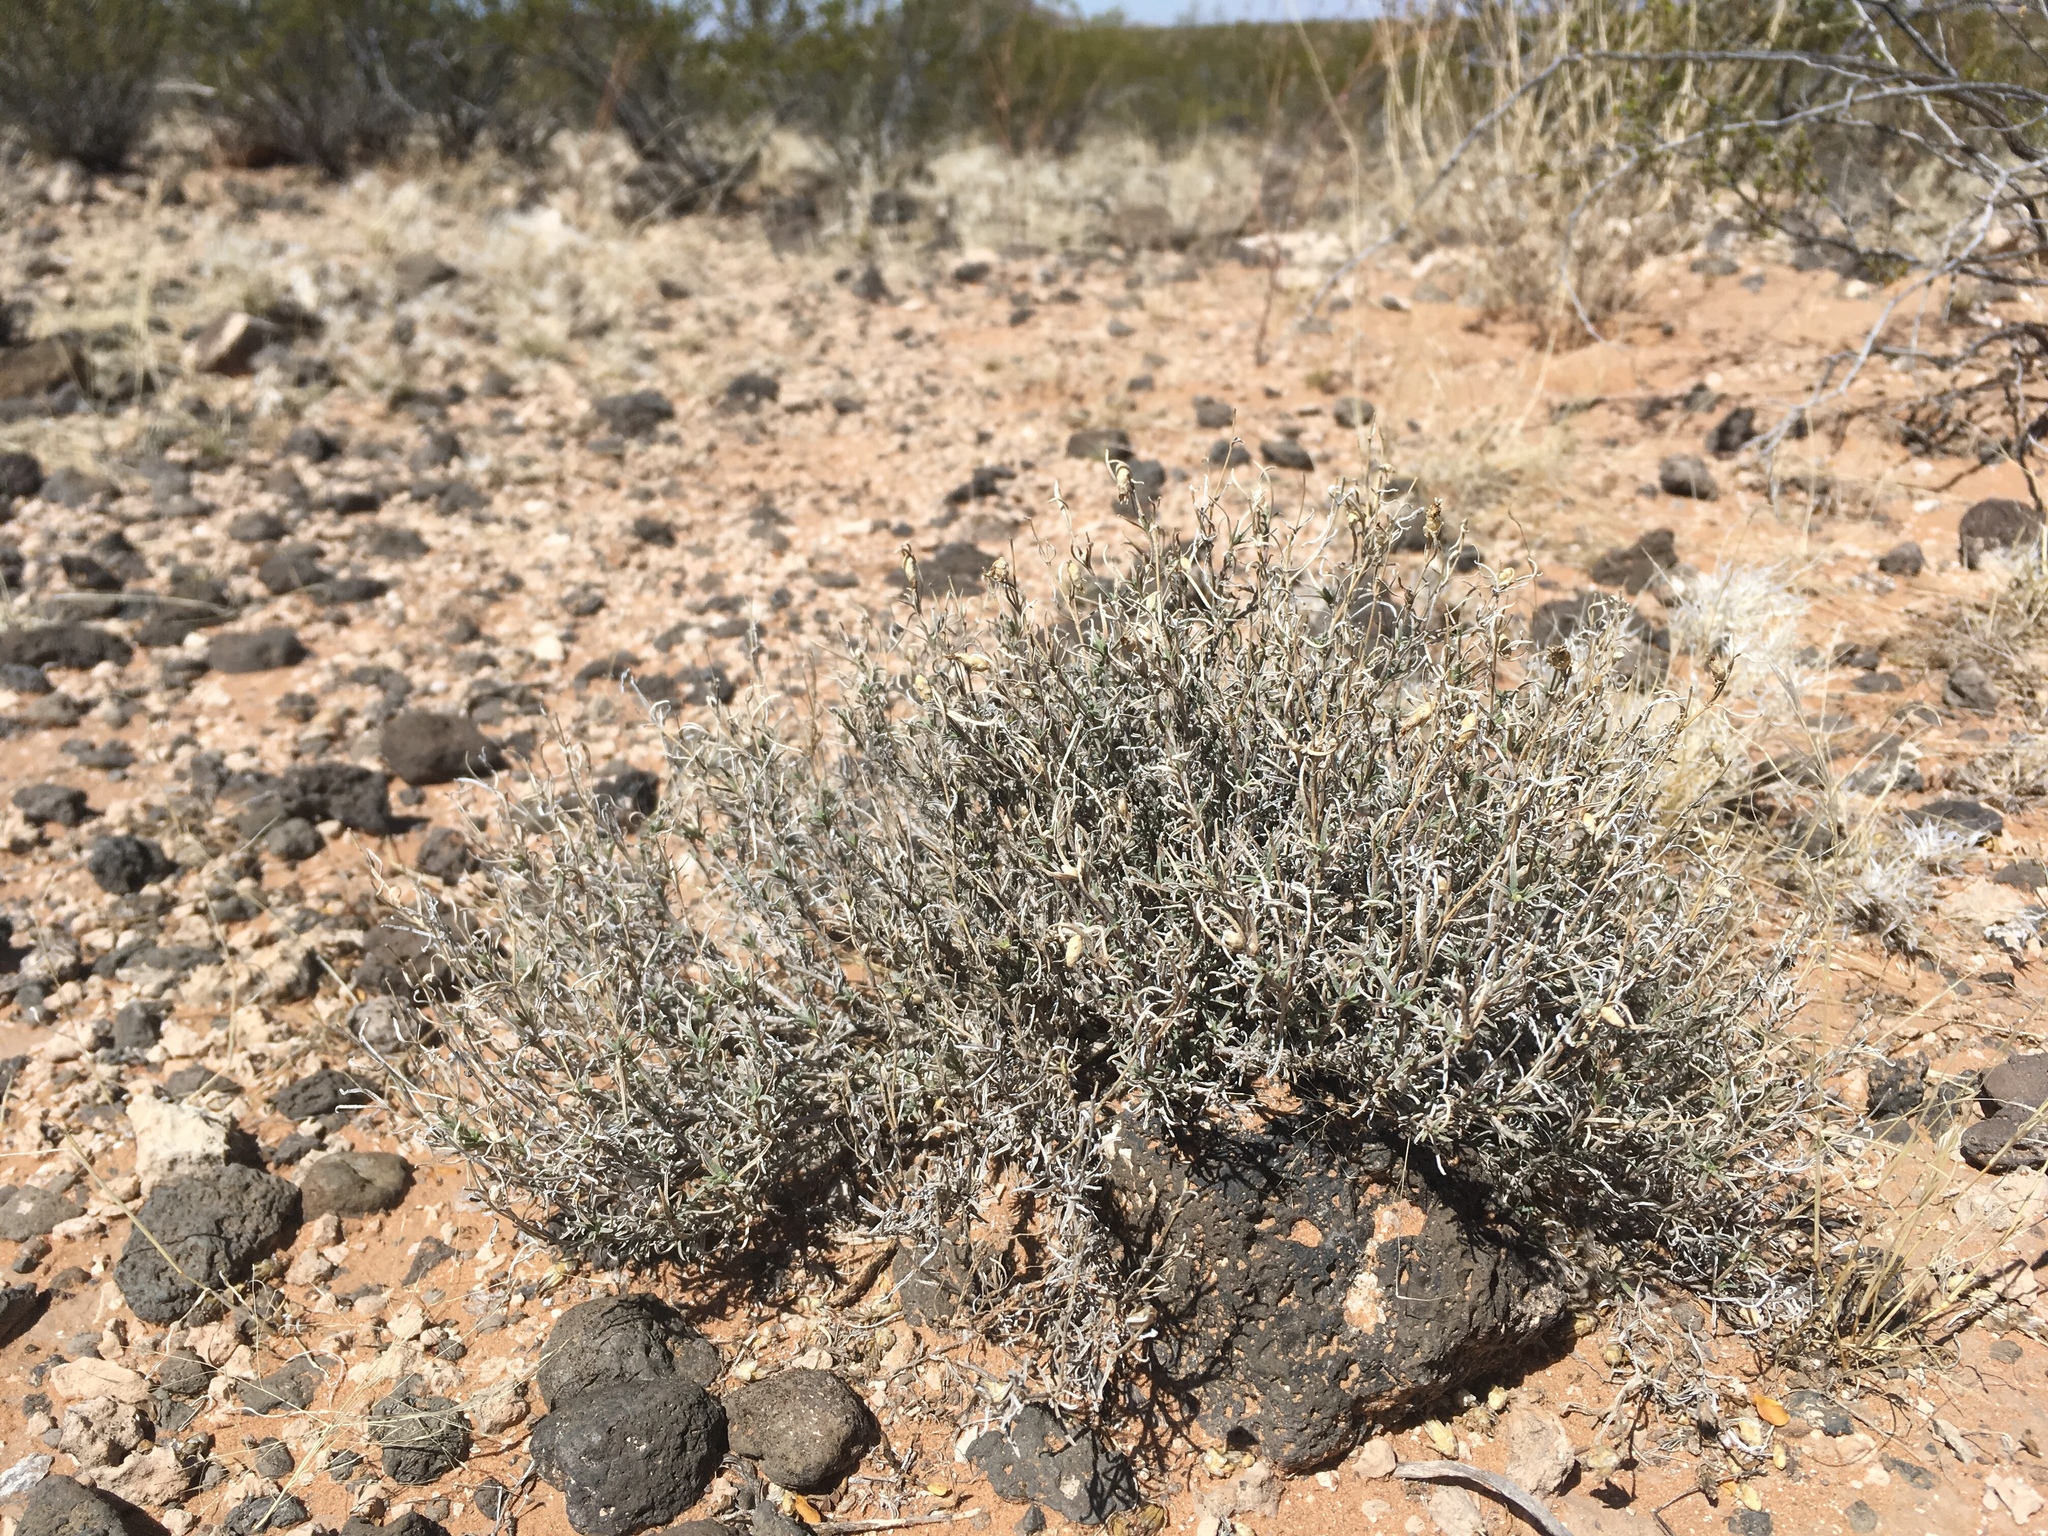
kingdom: Plantae
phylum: Tracheophyta
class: Magnoliopsida
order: Asterales
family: Asteraceae
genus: Zinnia
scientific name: Zinnia acerosa
